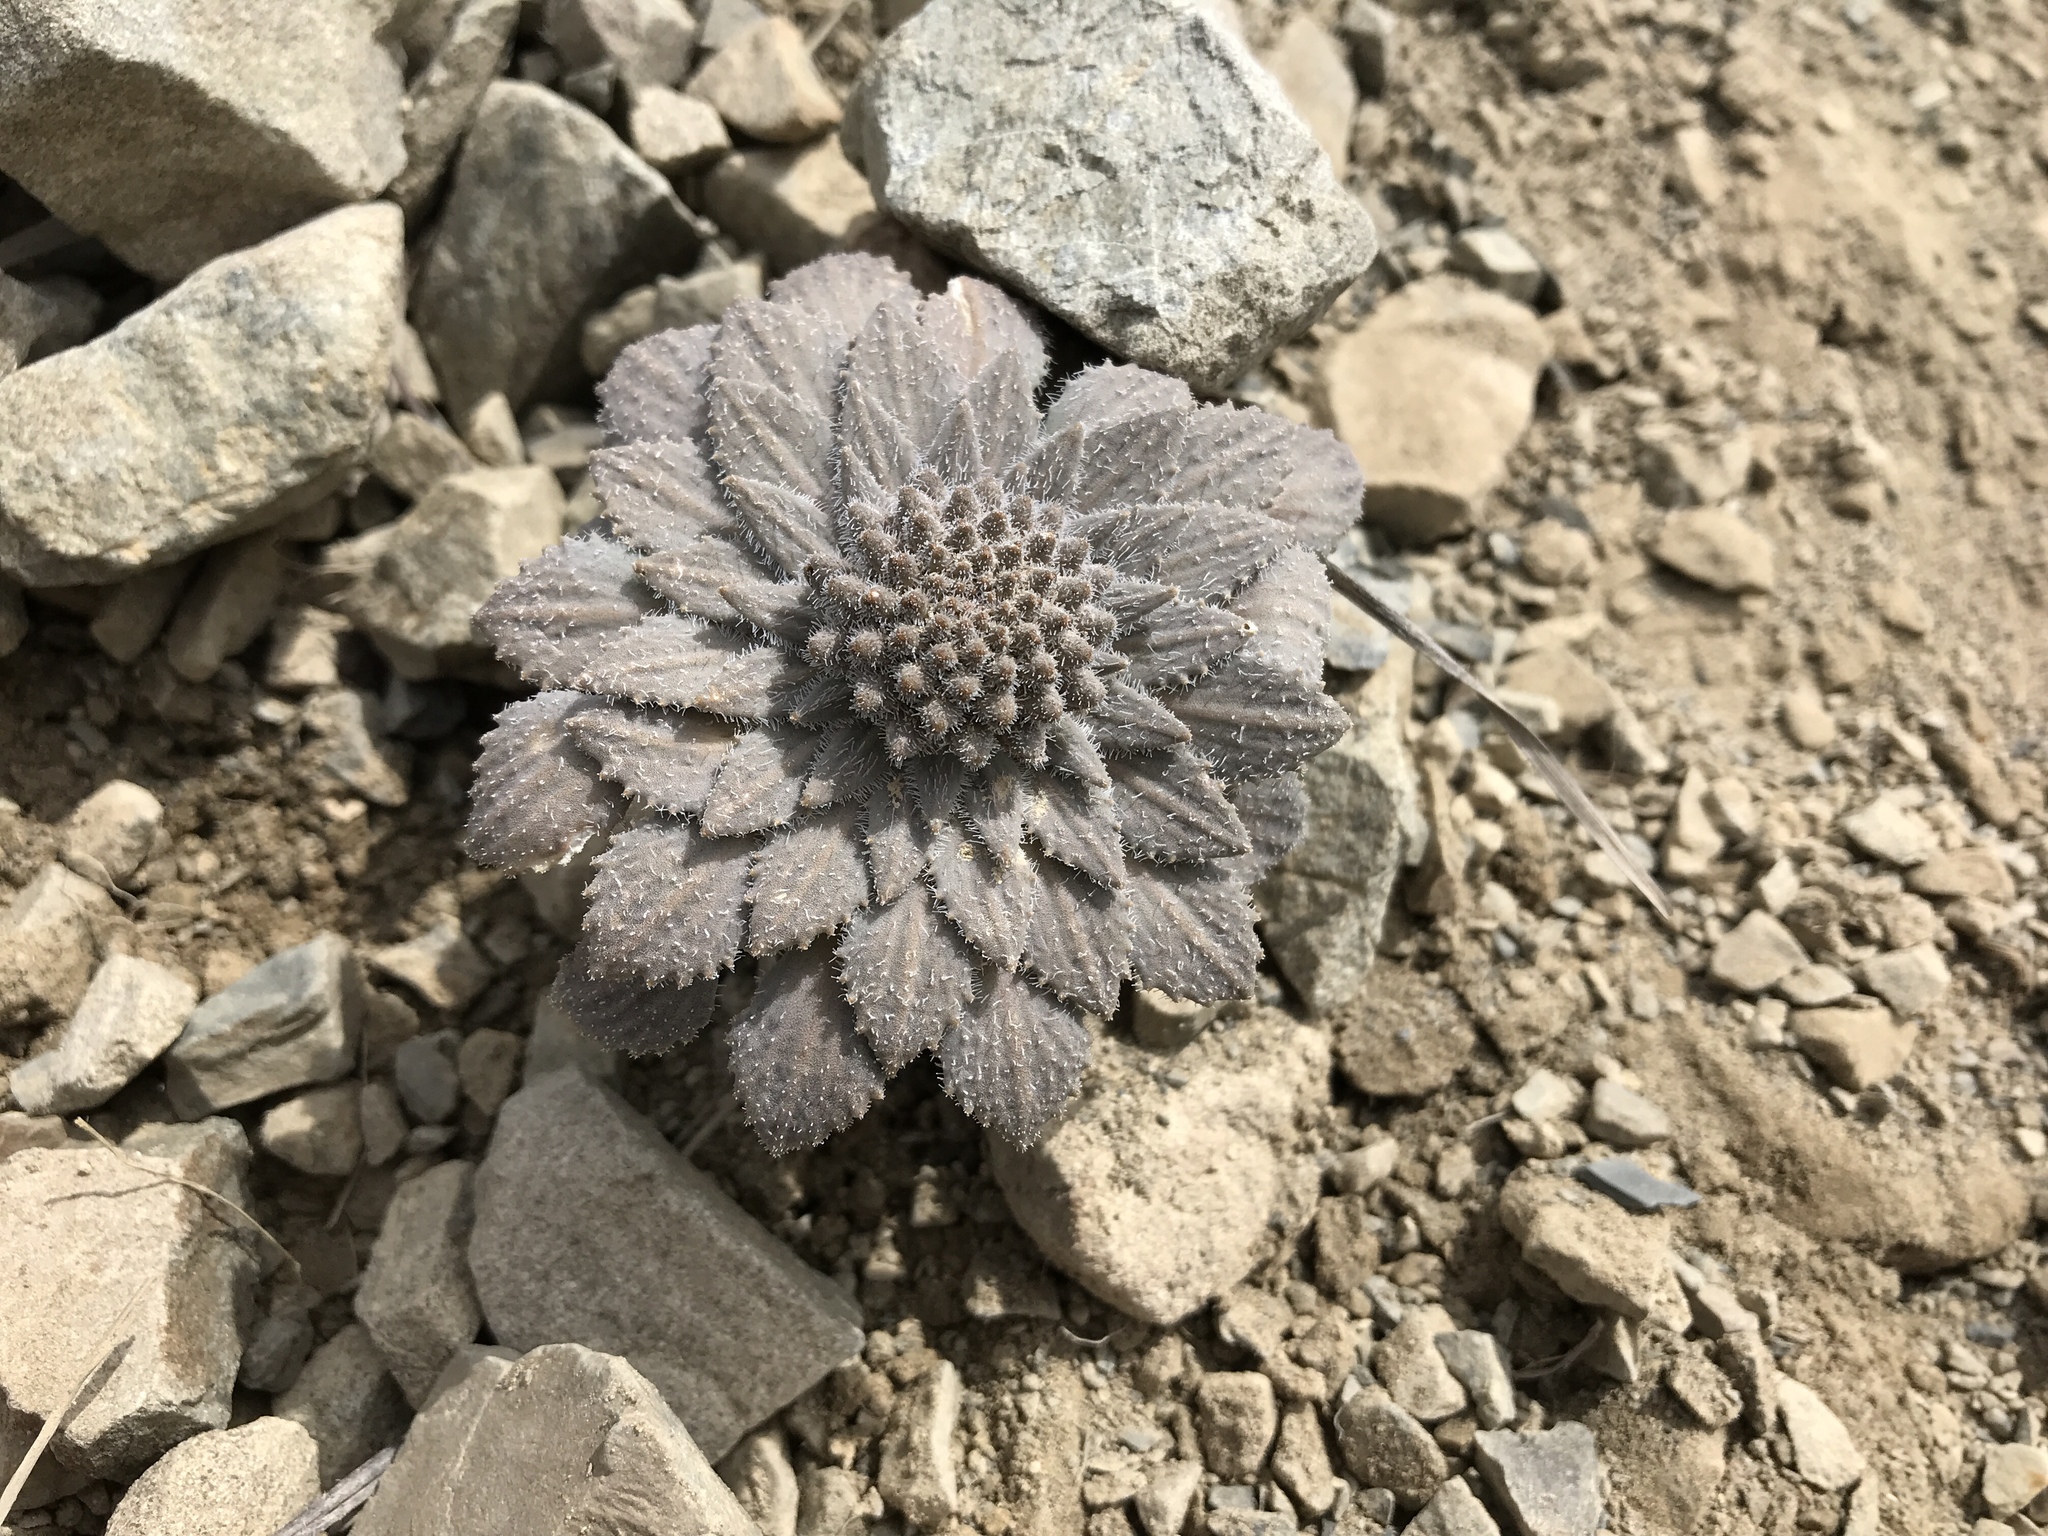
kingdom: Plantae
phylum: Tracheophyta
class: Magnoliopsida
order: Brassicales
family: Brassicaceae
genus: Notothlaspi
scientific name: Notothlaspi rosulatum
